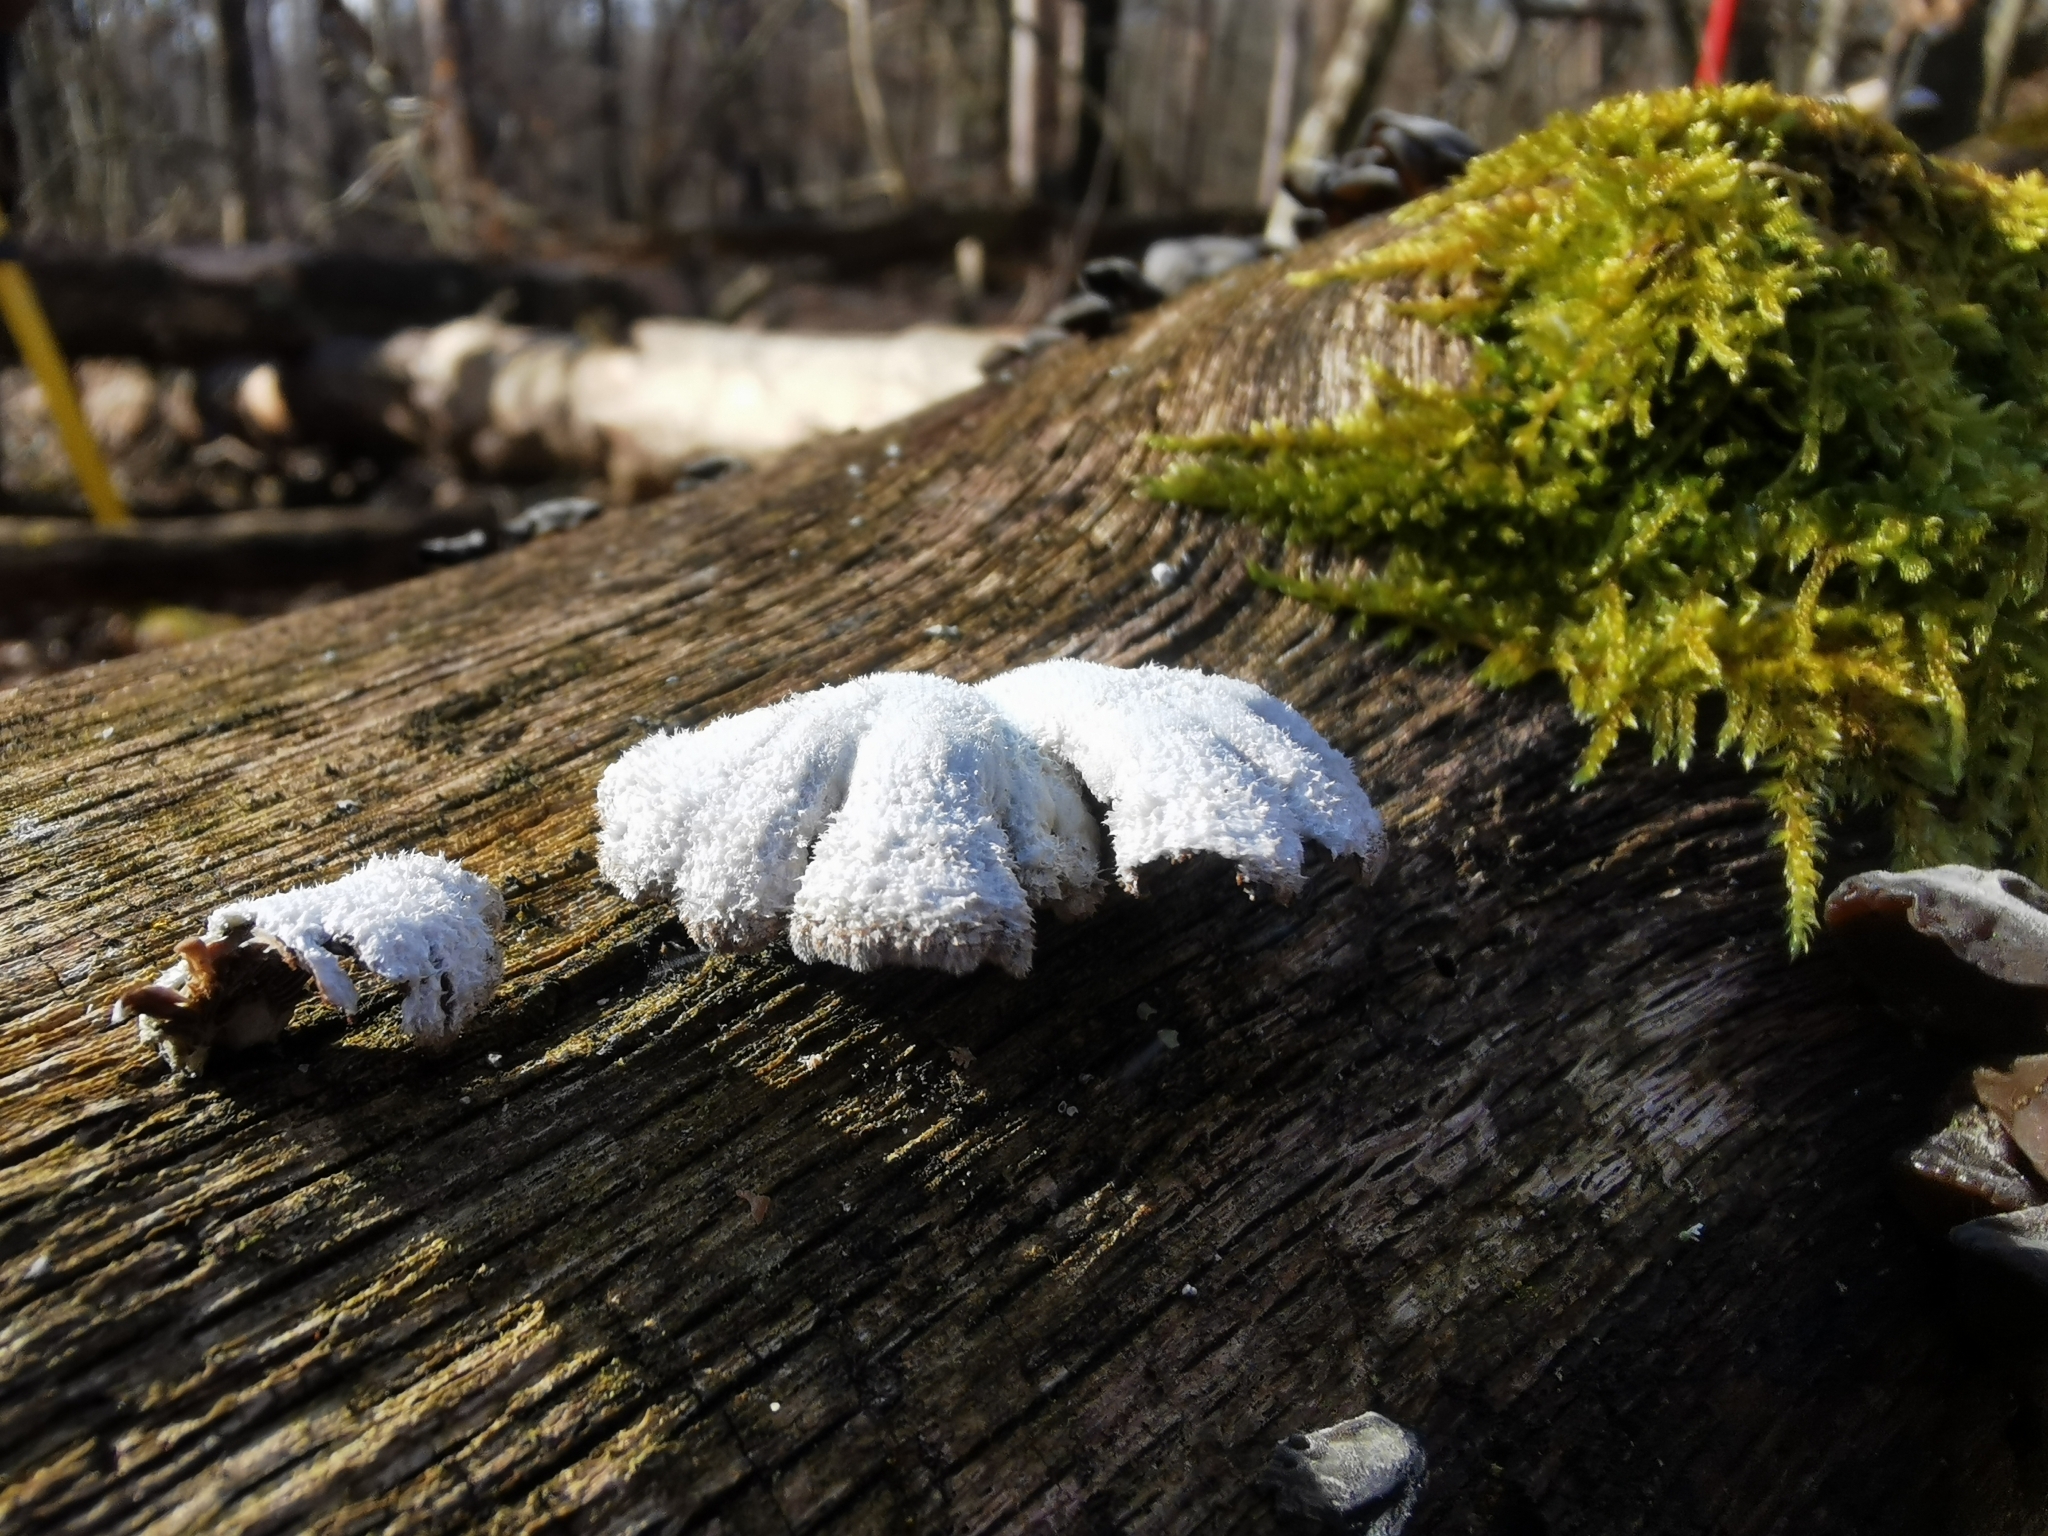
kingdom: Fungi
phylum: Basidiomycota
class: Agaricomycetes
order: Agaricales
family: Schizophyllaceae
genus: Schizophyllum
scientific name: Schizophyllum commune
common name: Common porecrust
